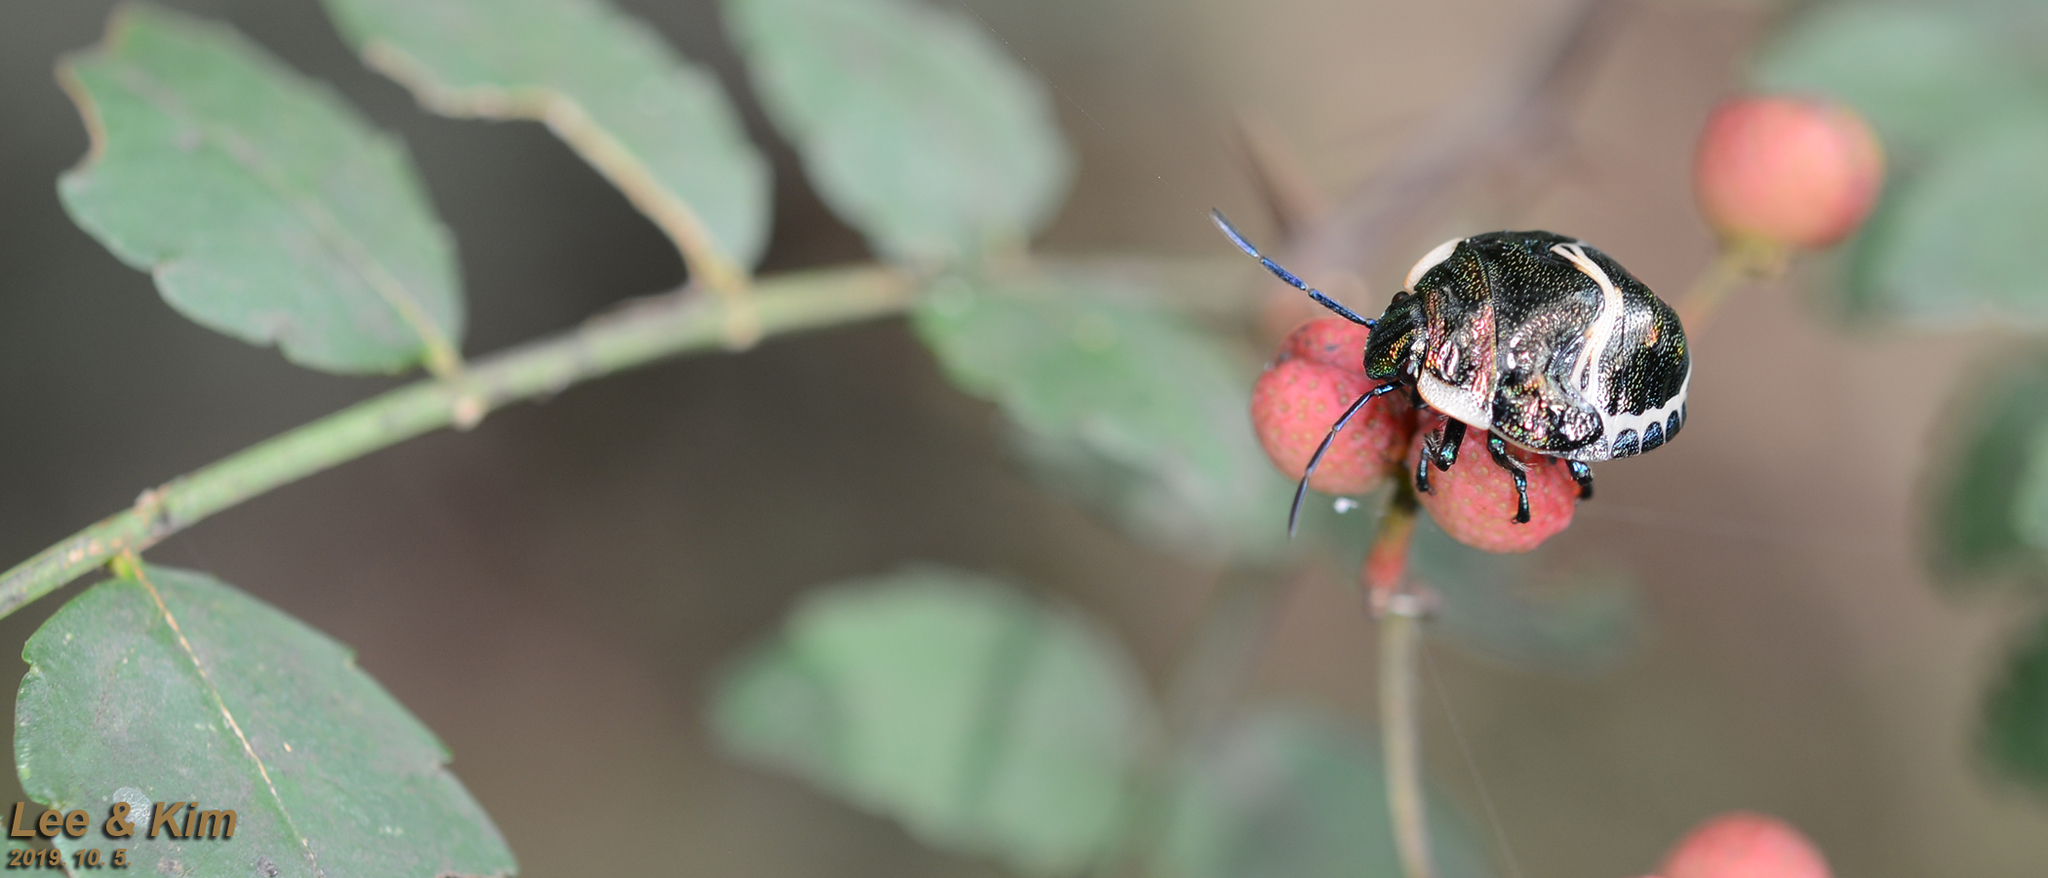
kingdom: Animalia
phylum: Arthropoda
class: Insecta
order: Hemiptera
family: Scutelleridae
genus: Poecilocoris
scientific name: Poecilocoris lewisi
